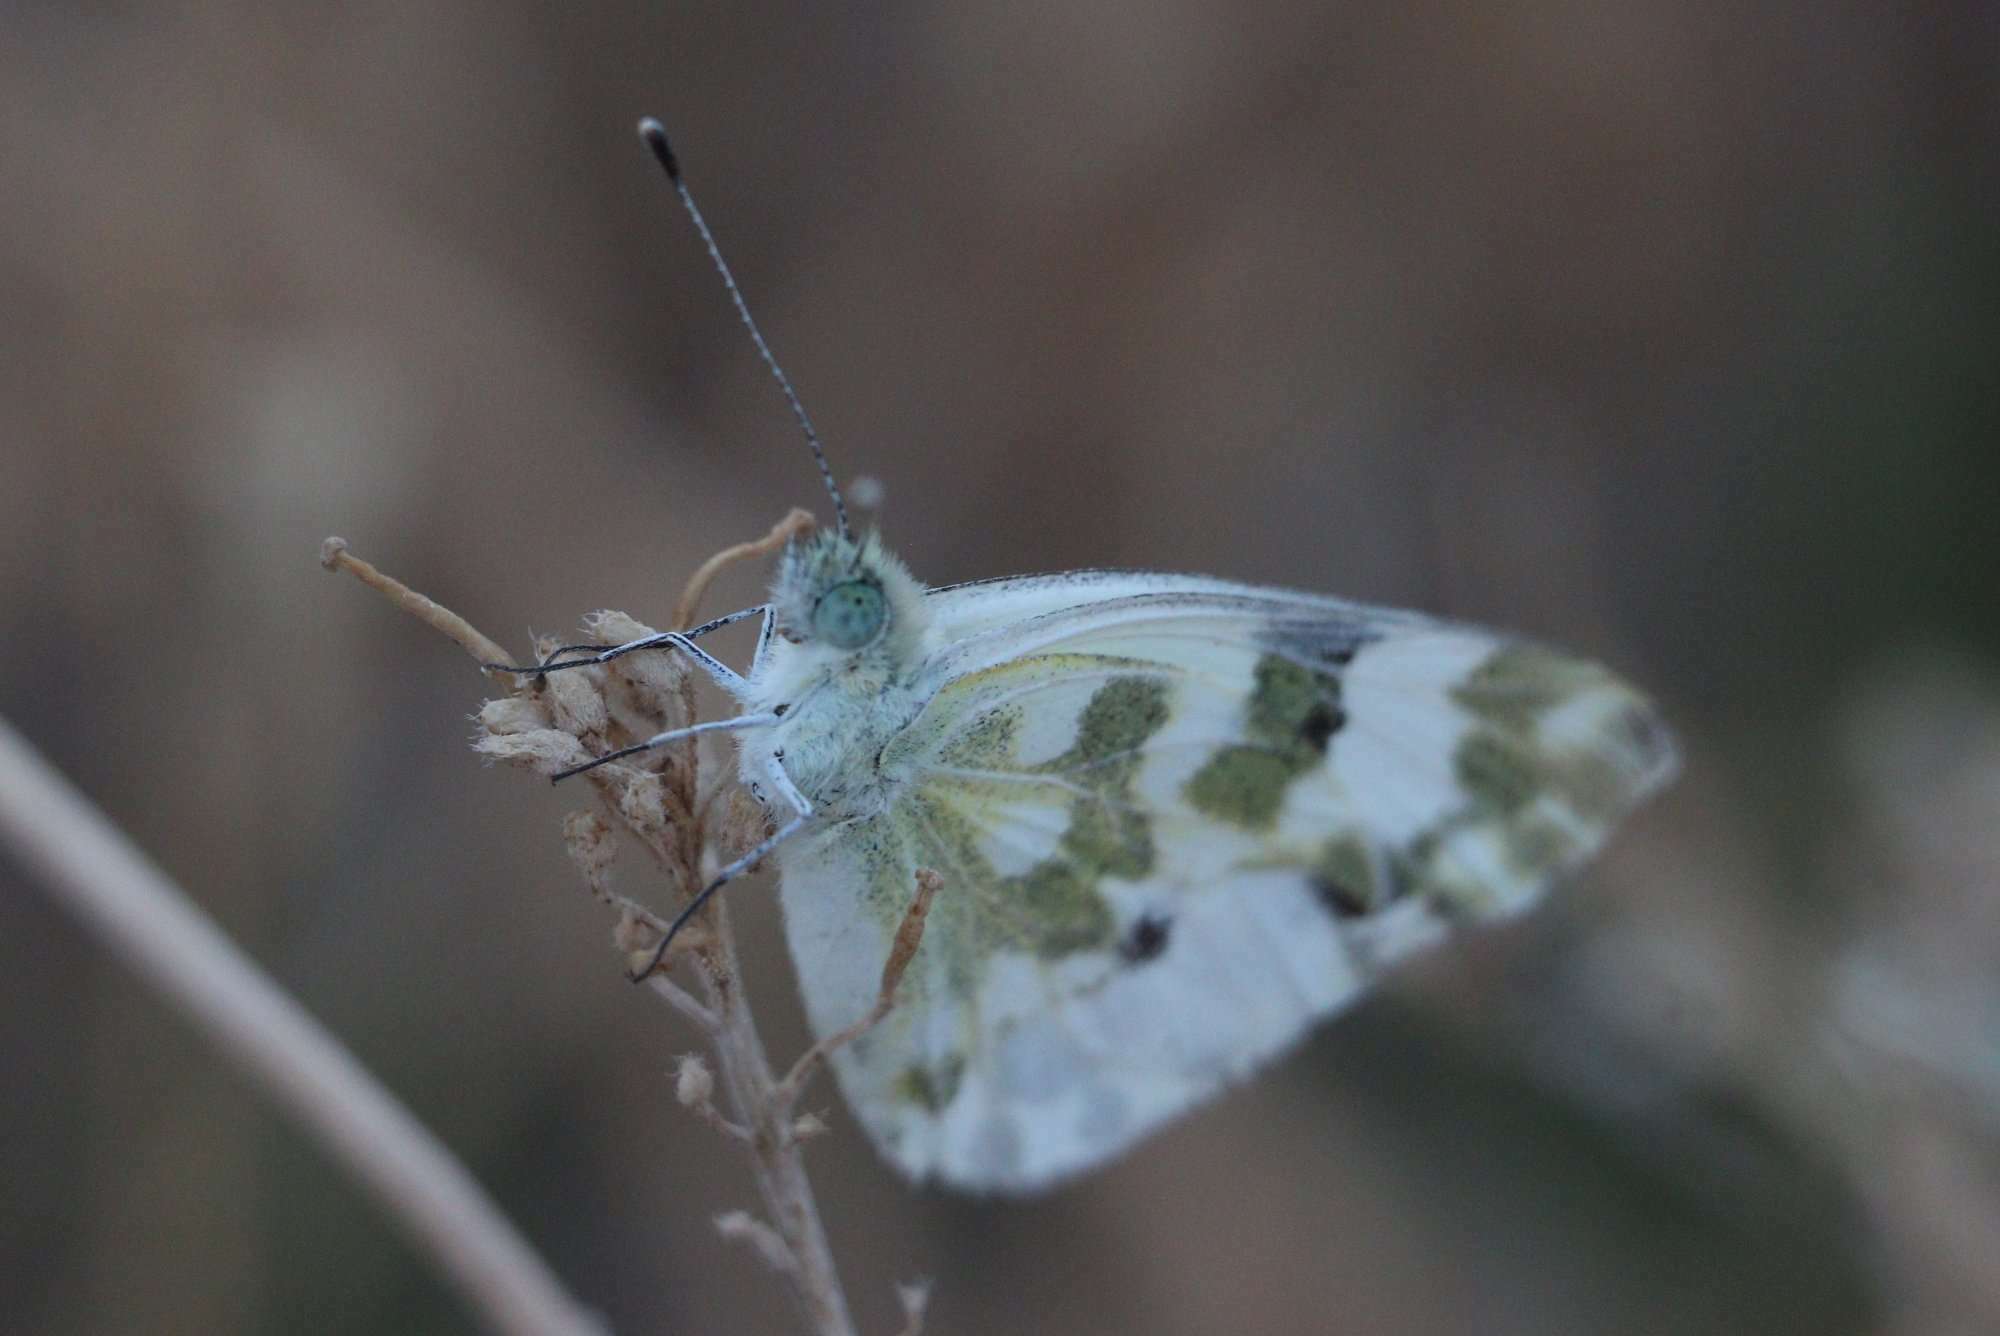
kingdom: Animalia
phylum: Arthropoda
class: Insecta
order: Lepidoptera
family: Pieridae
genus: Pontia
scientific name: Pontia daplidice
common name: Bath white
